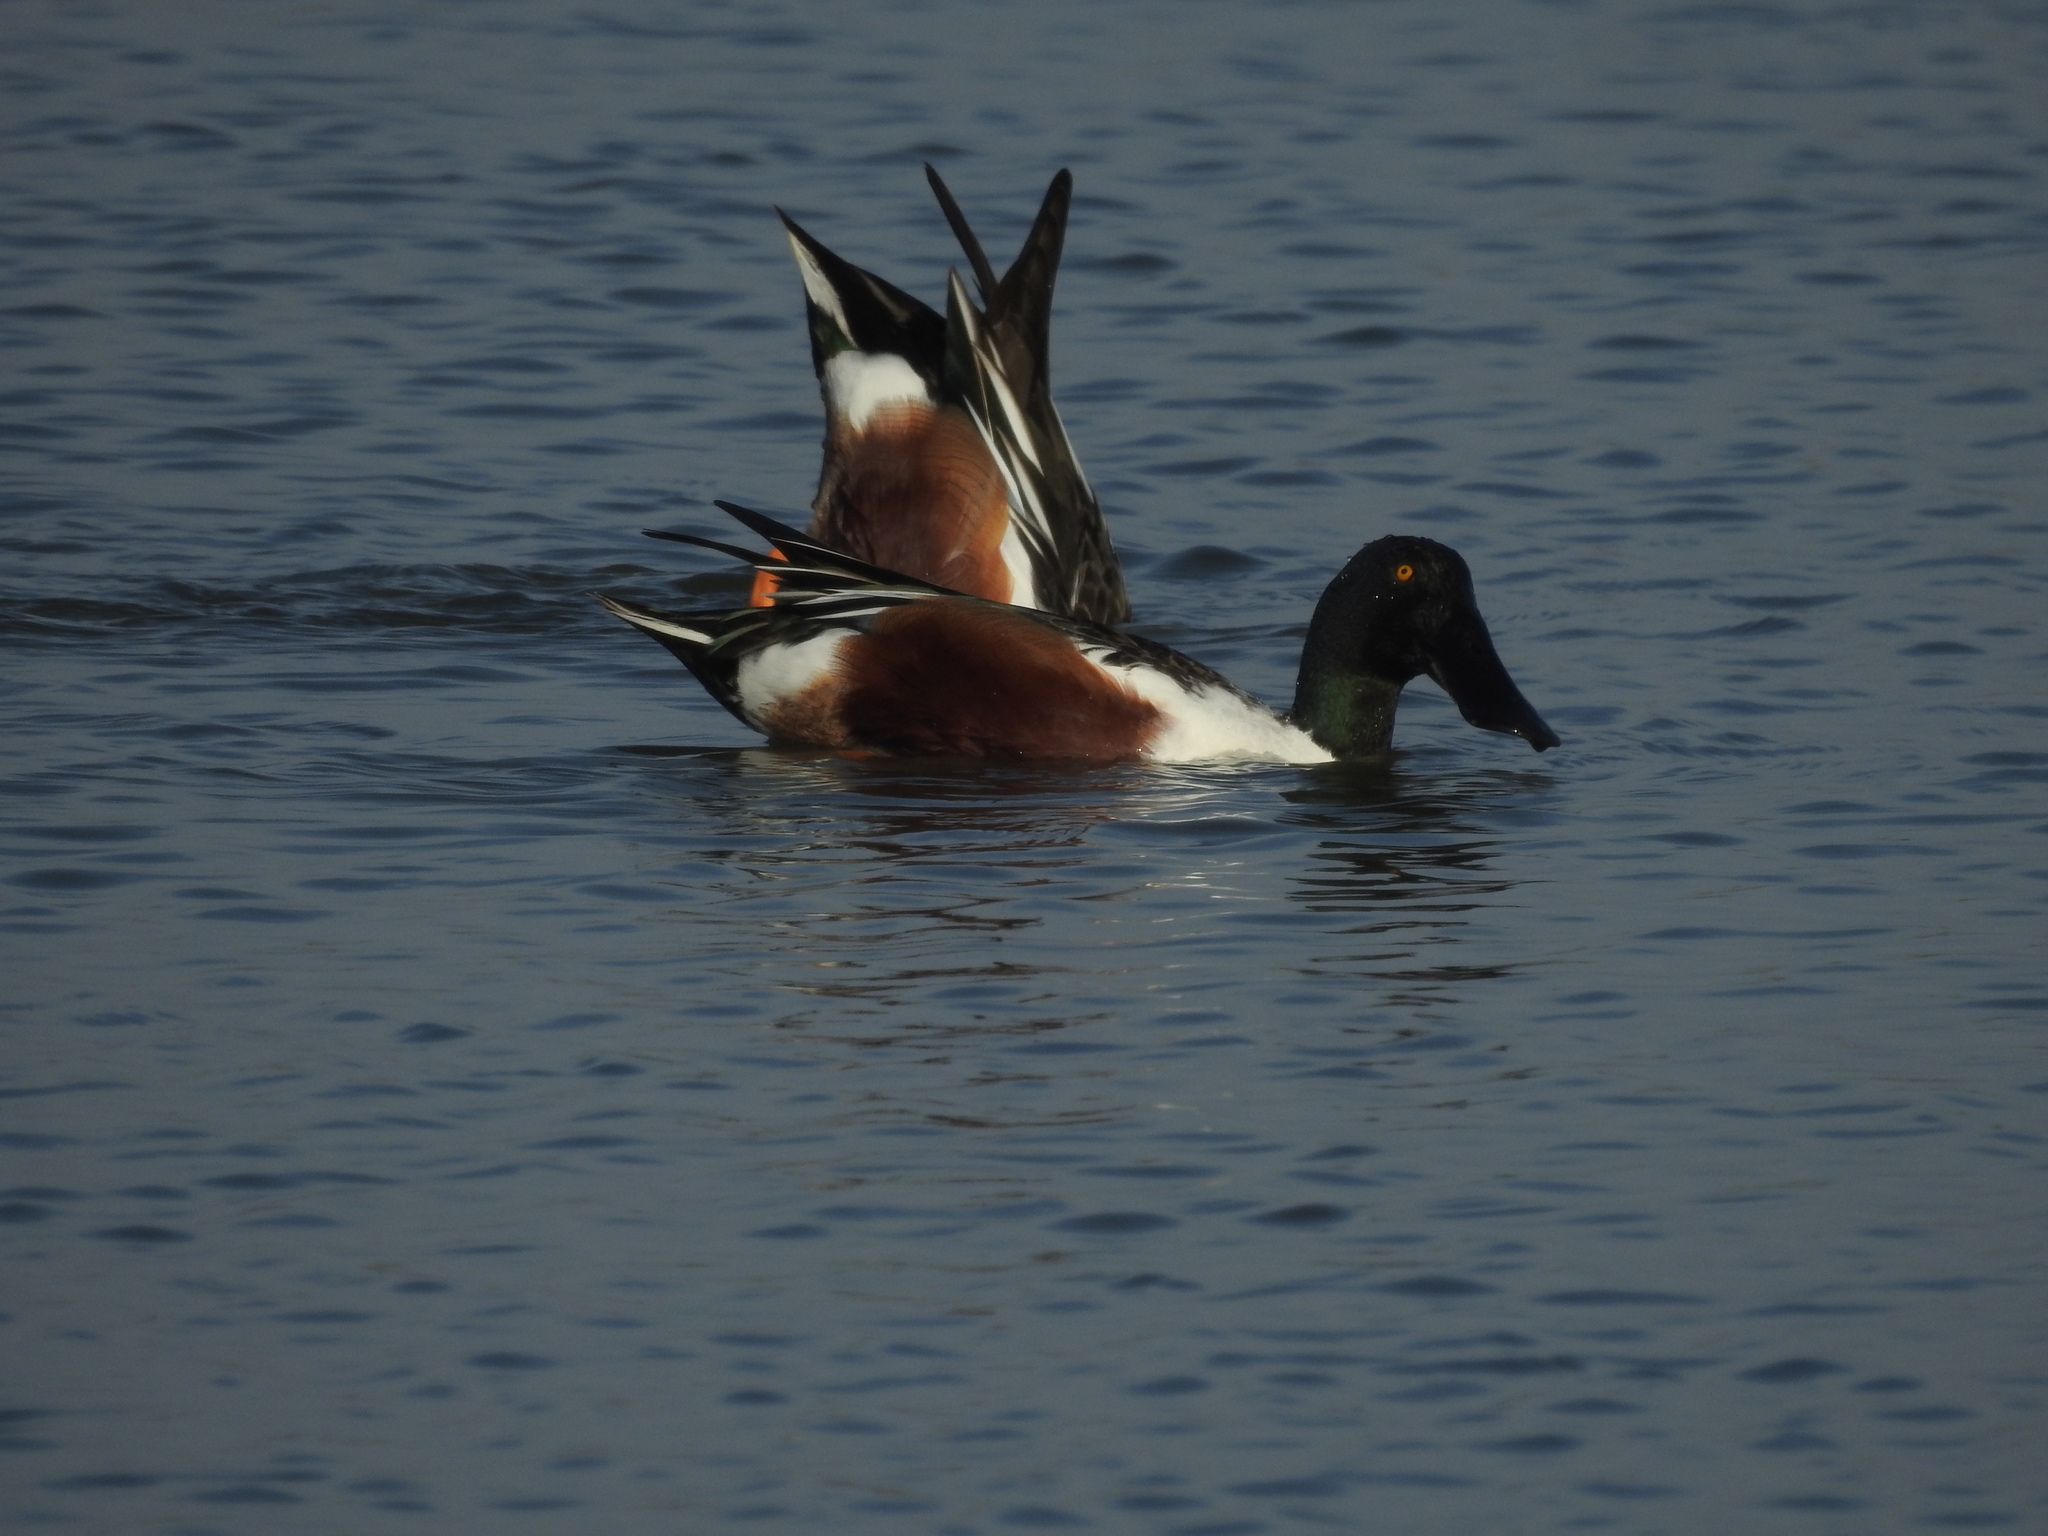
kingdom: Animalia
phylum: Chordata
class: Aves
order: Anseriformes
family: Anatidae
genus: Spatula
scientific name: Spatula clypeata
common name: Northern shoveler
